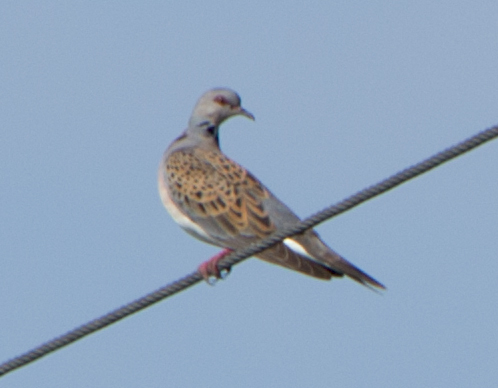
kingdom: Animalia
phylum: Chordata
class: Aves
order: Columbiformes
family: Columbidae
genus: Streptopelia
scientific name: Streptopelia turtur
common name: European turtle dove
